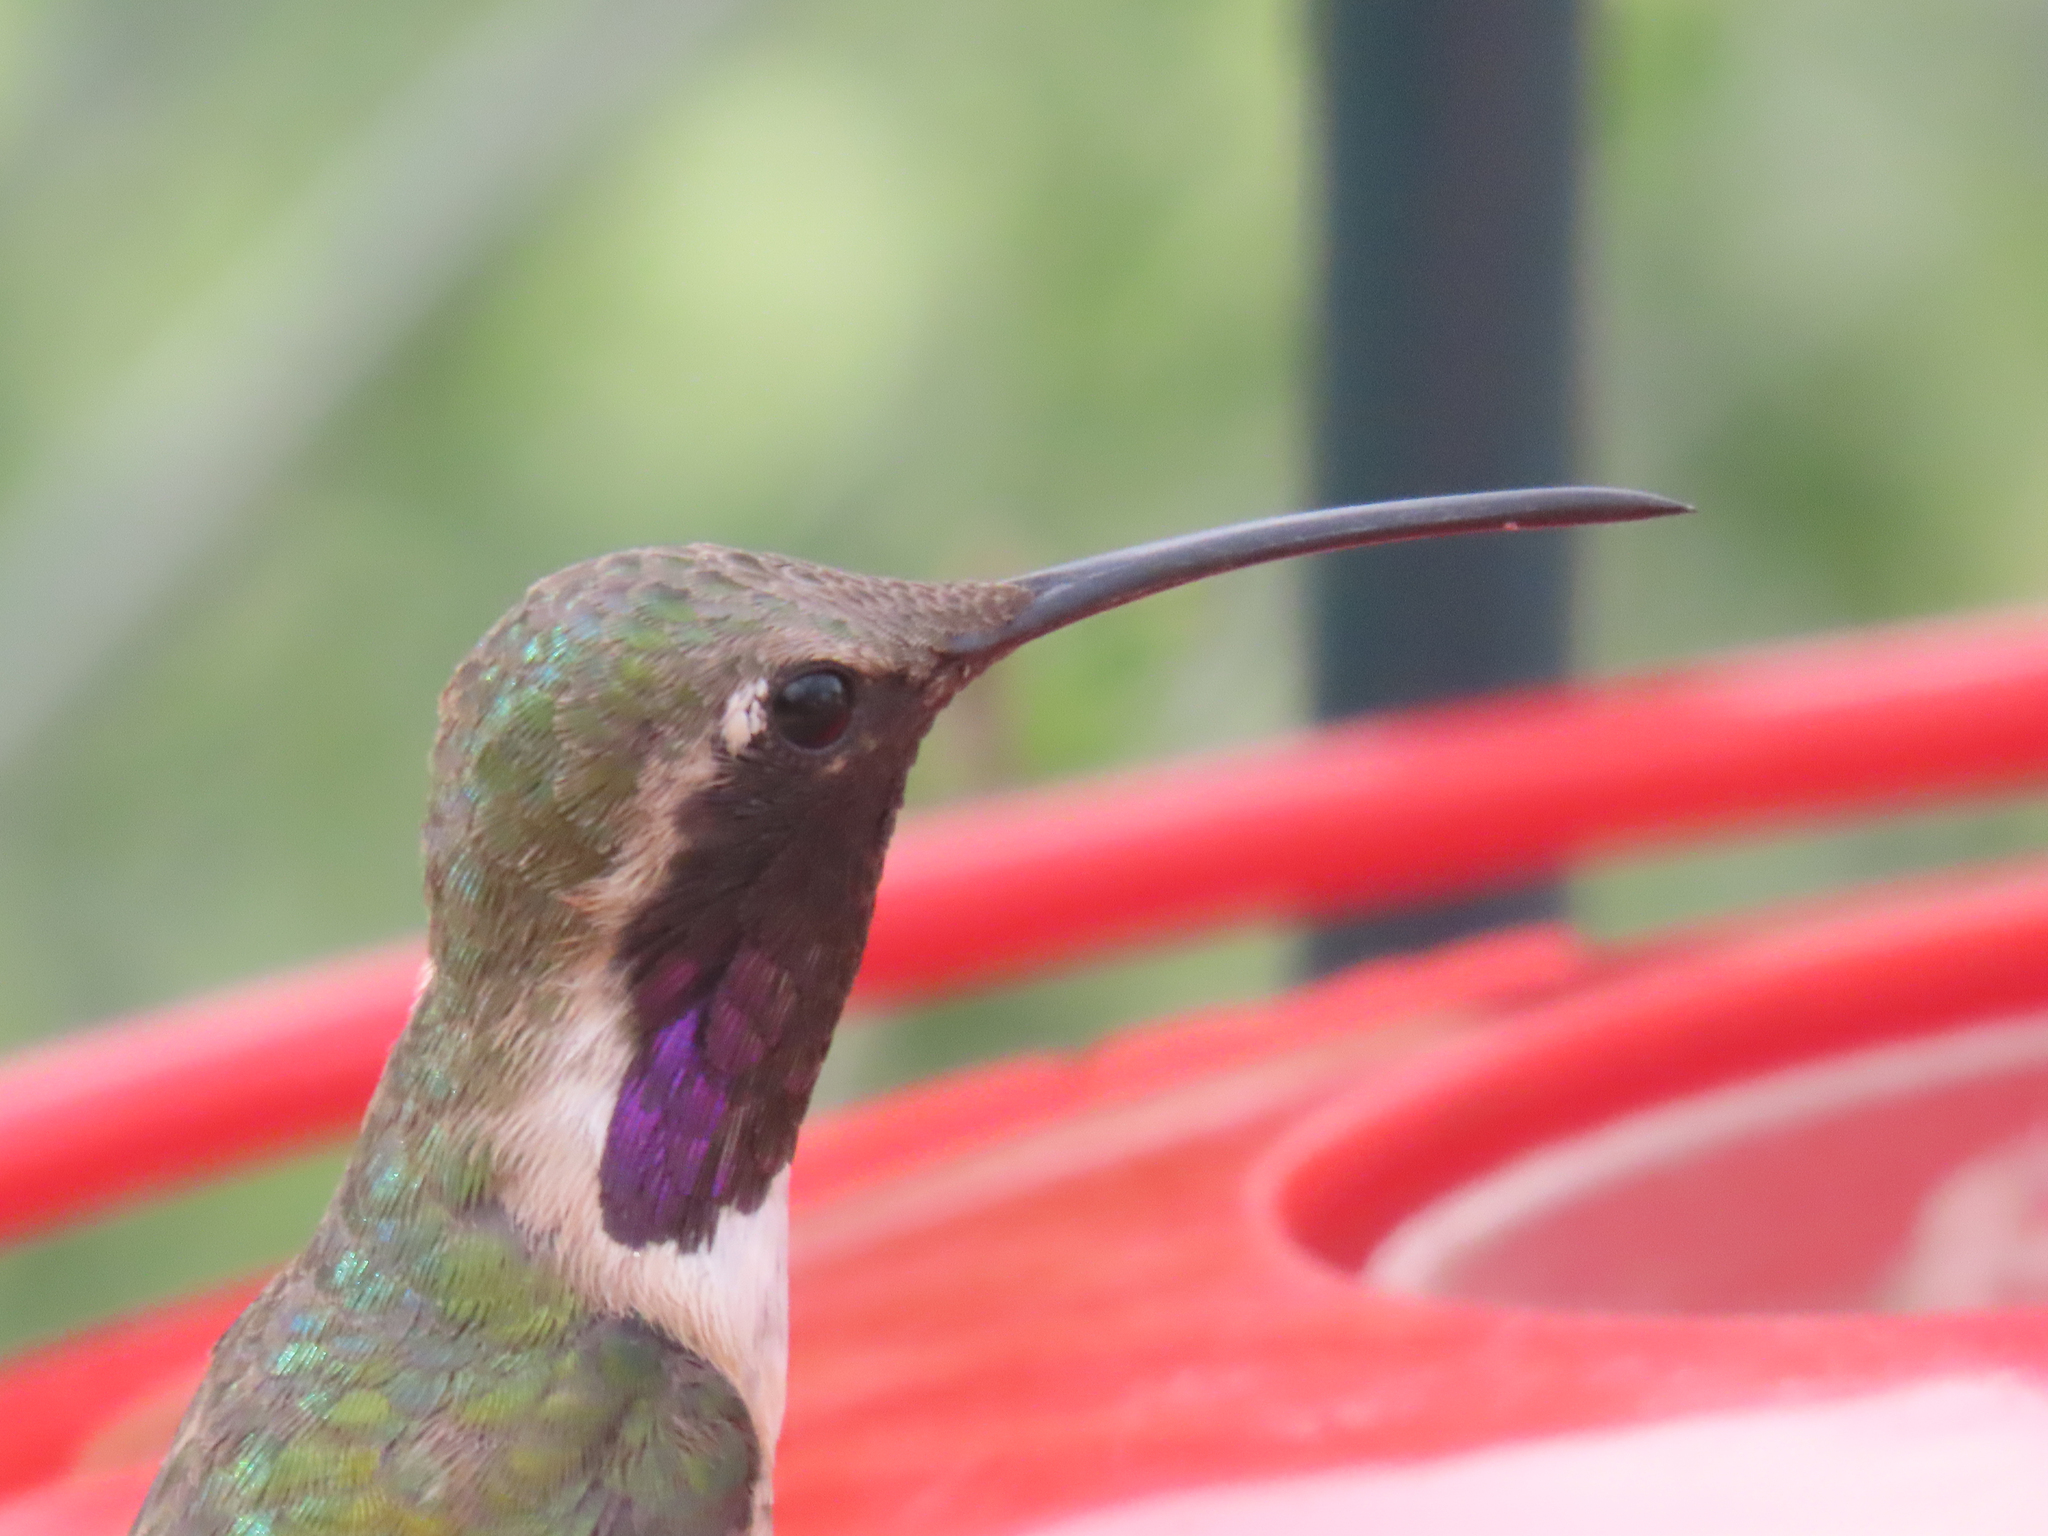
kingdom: Animalia
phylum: Chordata
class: Aves
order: Apodiformes
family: Trochilidae
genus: Calothorax
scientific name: Calothorax lucifer
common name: Lucifer sheartail
